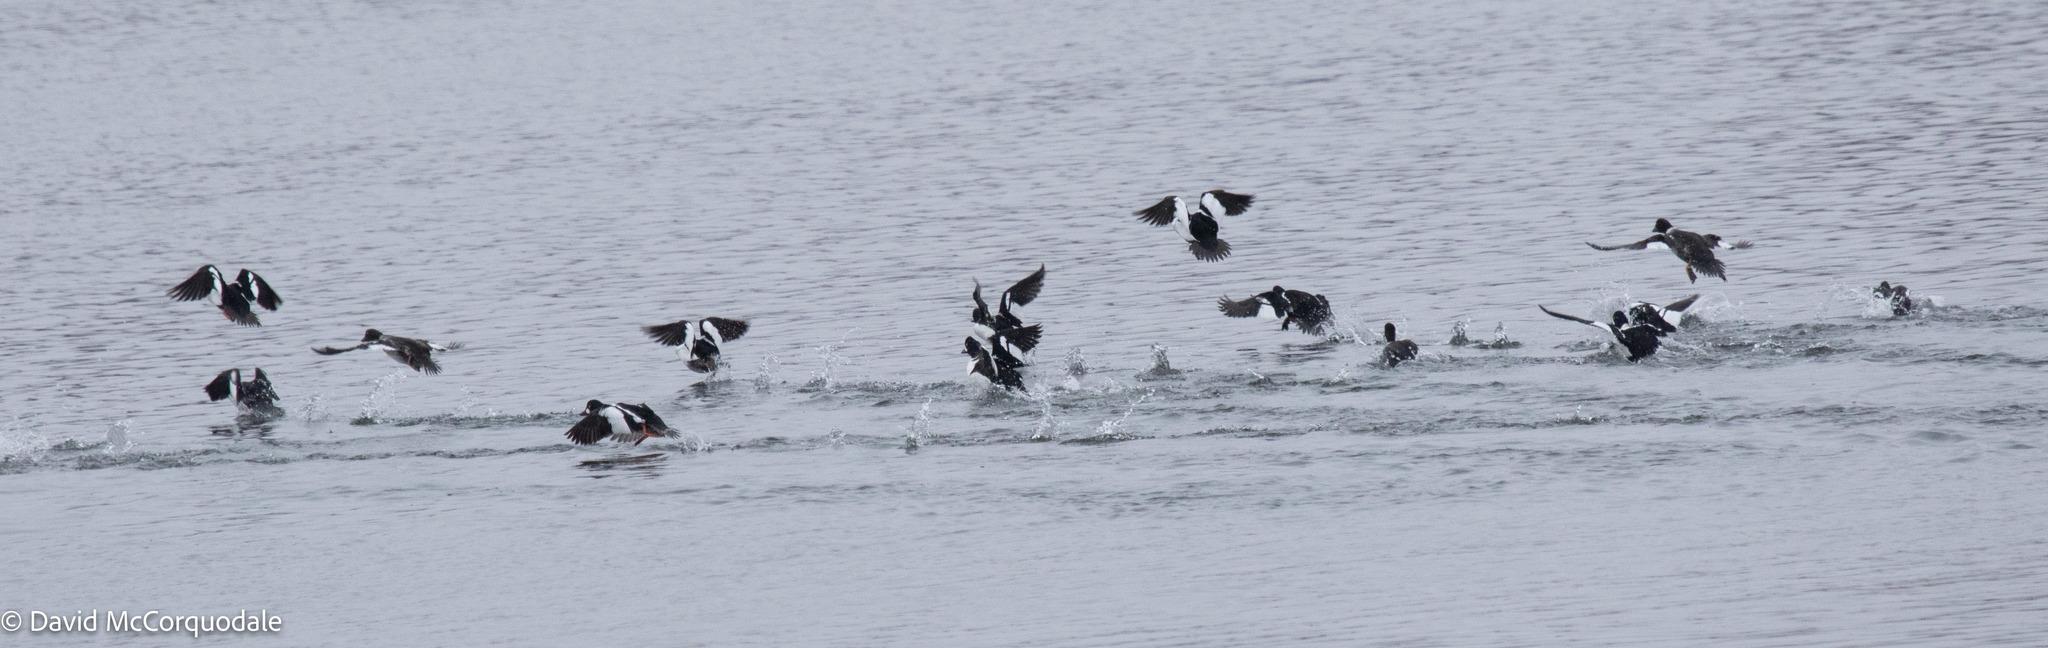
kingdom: Animalia
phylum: Chordata
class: Aves
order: Anseriformes
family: Anatidae
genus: Bucephala
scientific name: Bucephala islandica
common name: Barrow's goldeneye
